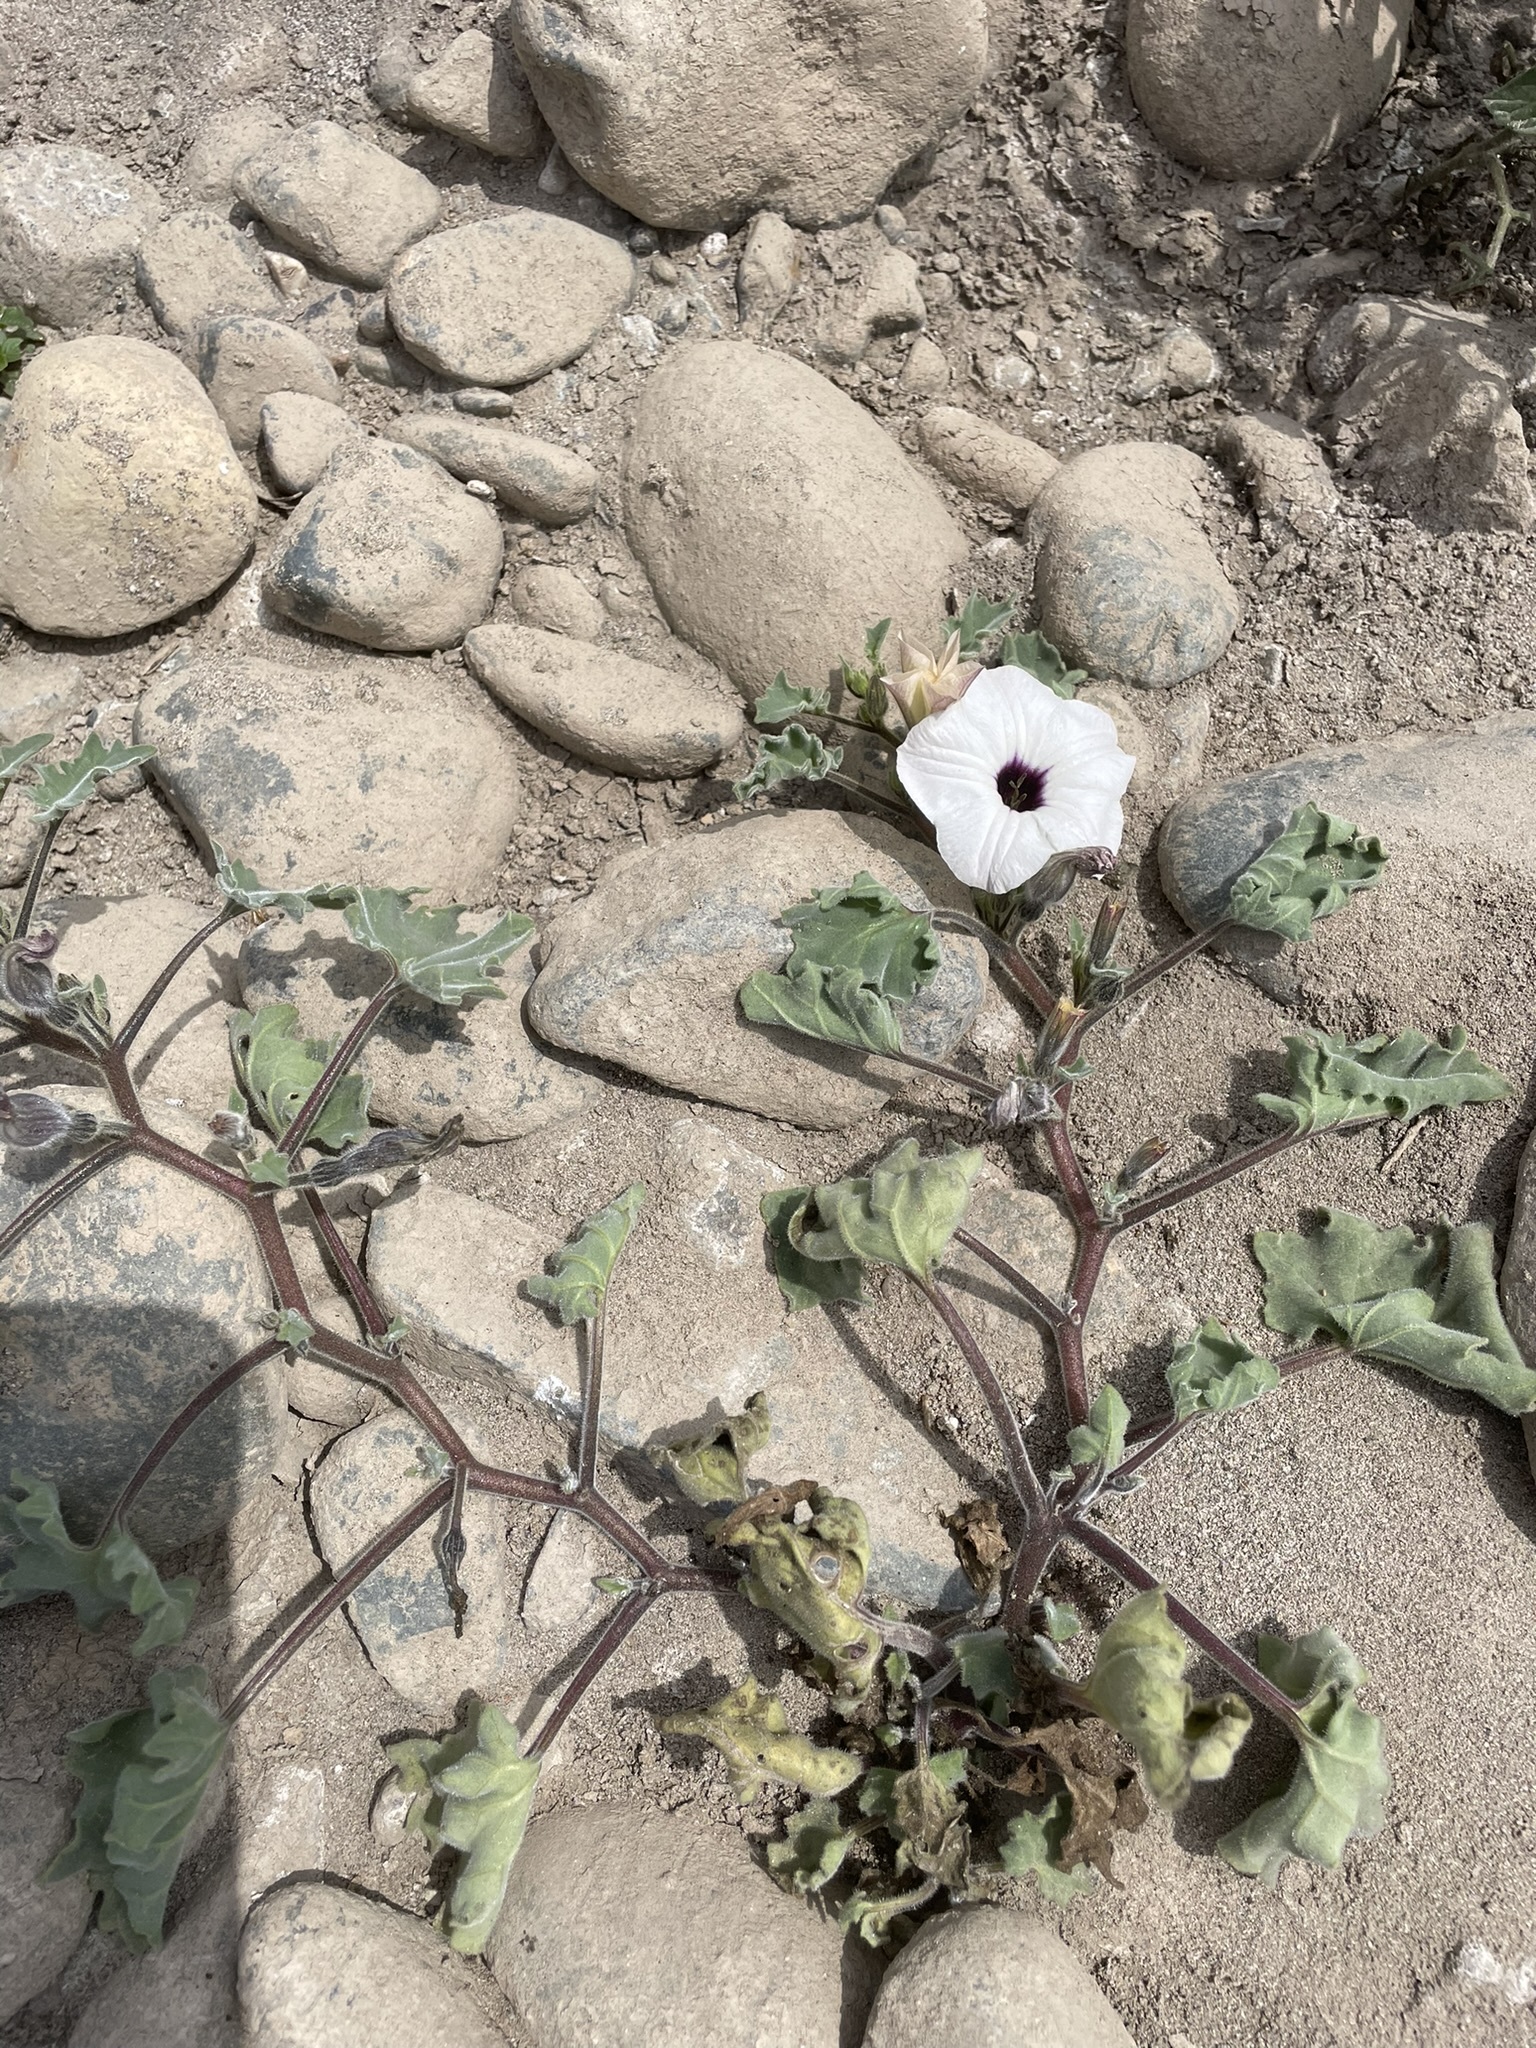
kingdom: Plantae
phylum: Tracheophyta
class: Magnoliopsida
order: Solanales
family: Solanaceae
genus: Exodeconus
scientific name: Exodeconus maritima
